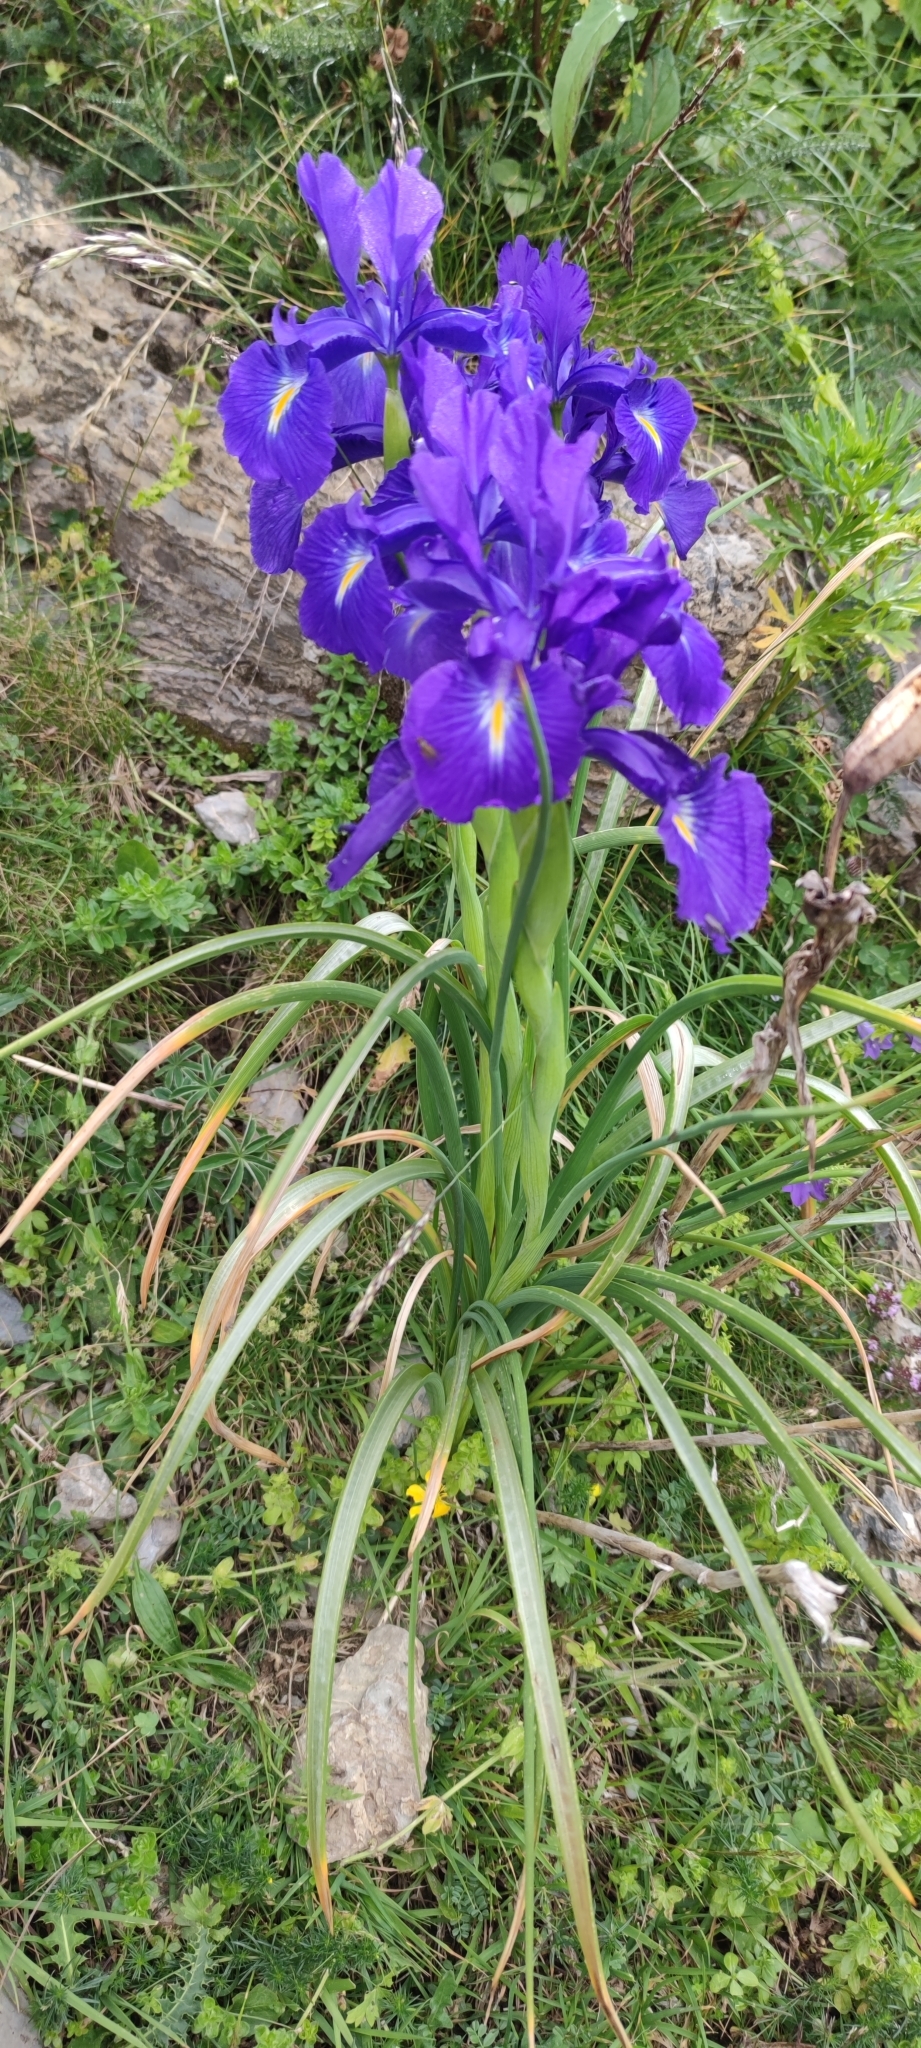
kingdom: Plantae
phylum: Tracheophyta
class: Liliopsida
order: Asparagales
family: Iridaceae
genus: Iris
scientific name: Iris
